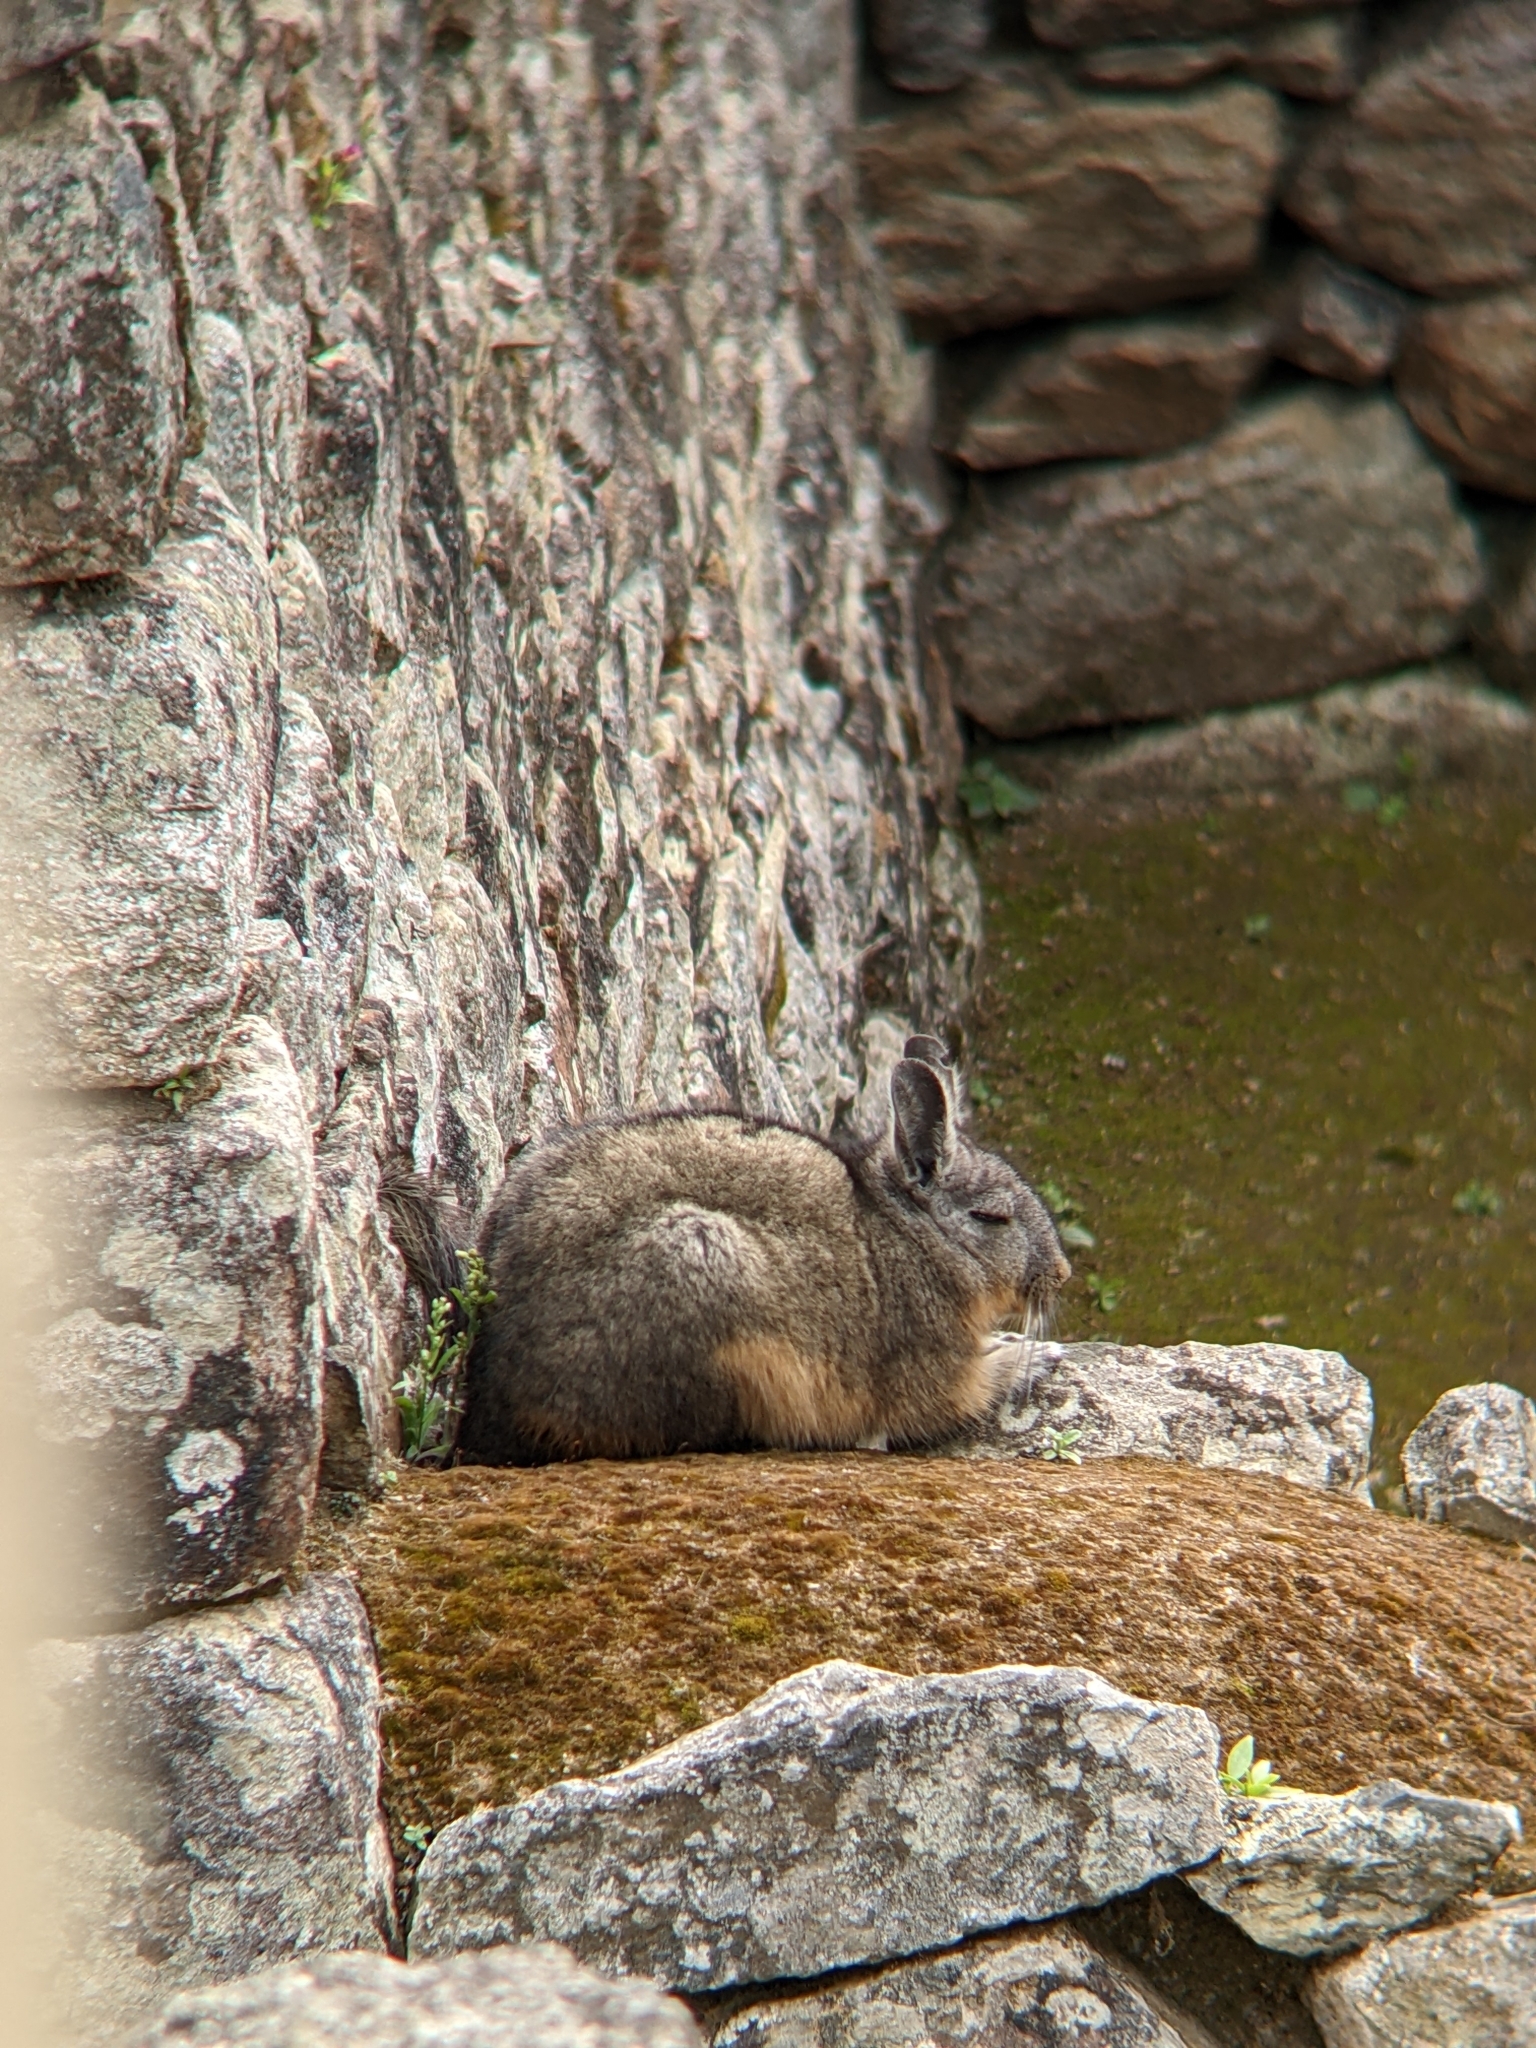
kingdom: Animalia
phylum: Chordata
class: Mammalia
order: Rodentia
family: Chinchillidae
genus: Lagidium
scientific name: Lagidium viscacia
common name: Southern viscacha
